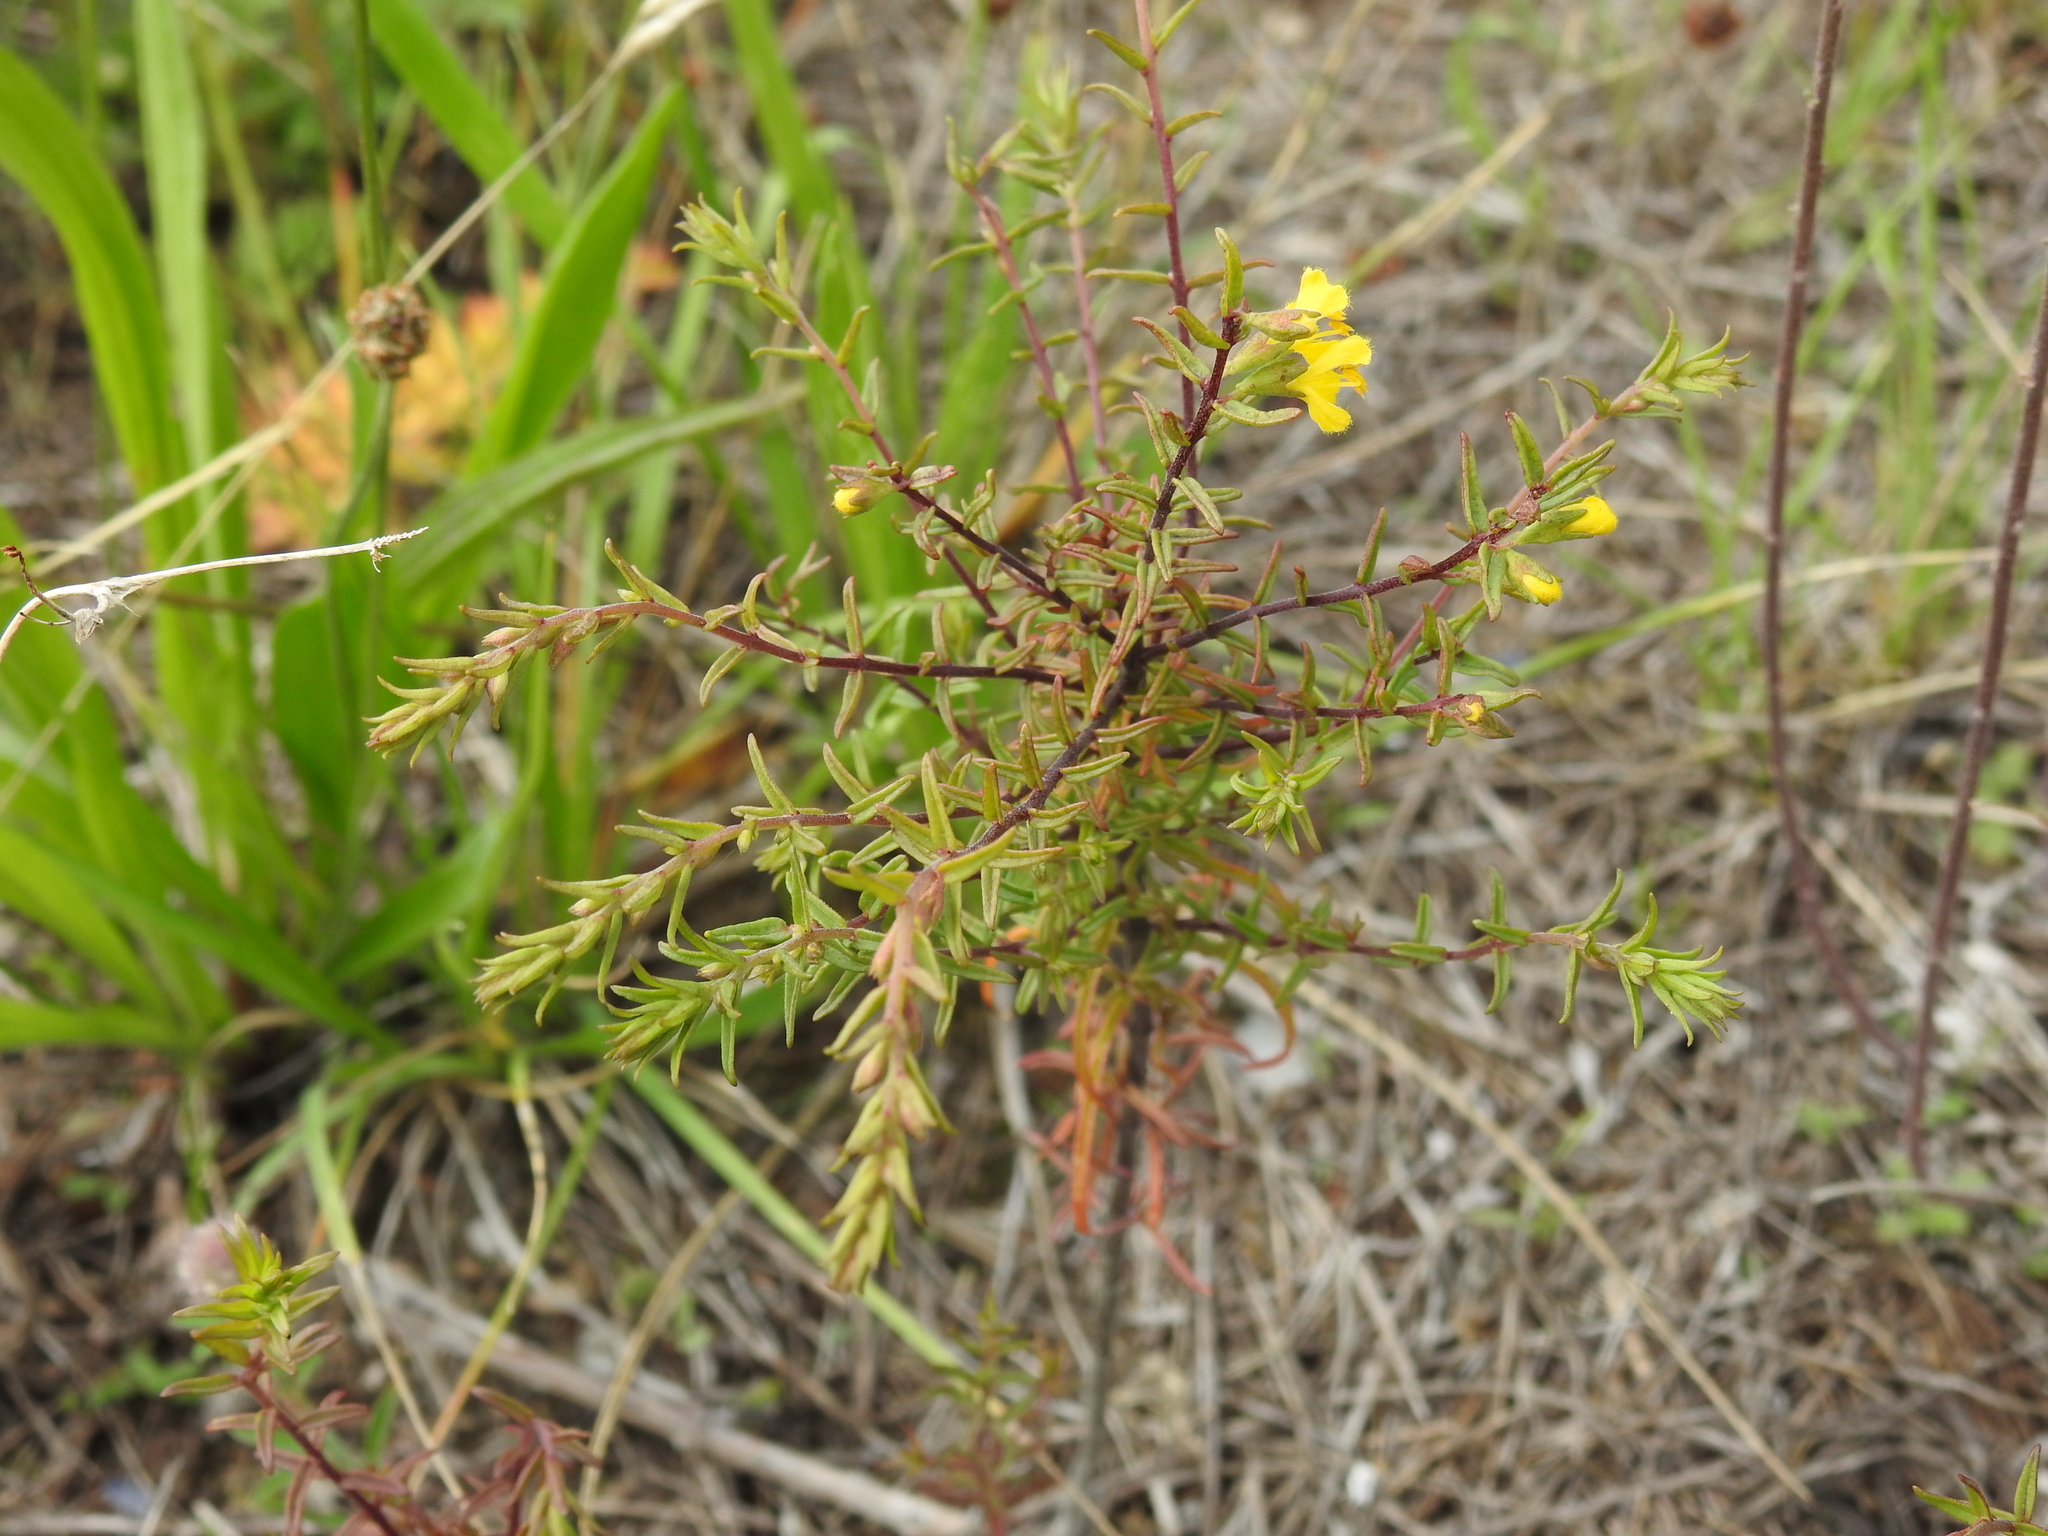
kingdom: Plantae
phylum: Tracheophyta
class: Magnoliopsida
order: Lamiales
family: Orobanchaceae
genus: Odontites
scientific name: Odontites luteus
